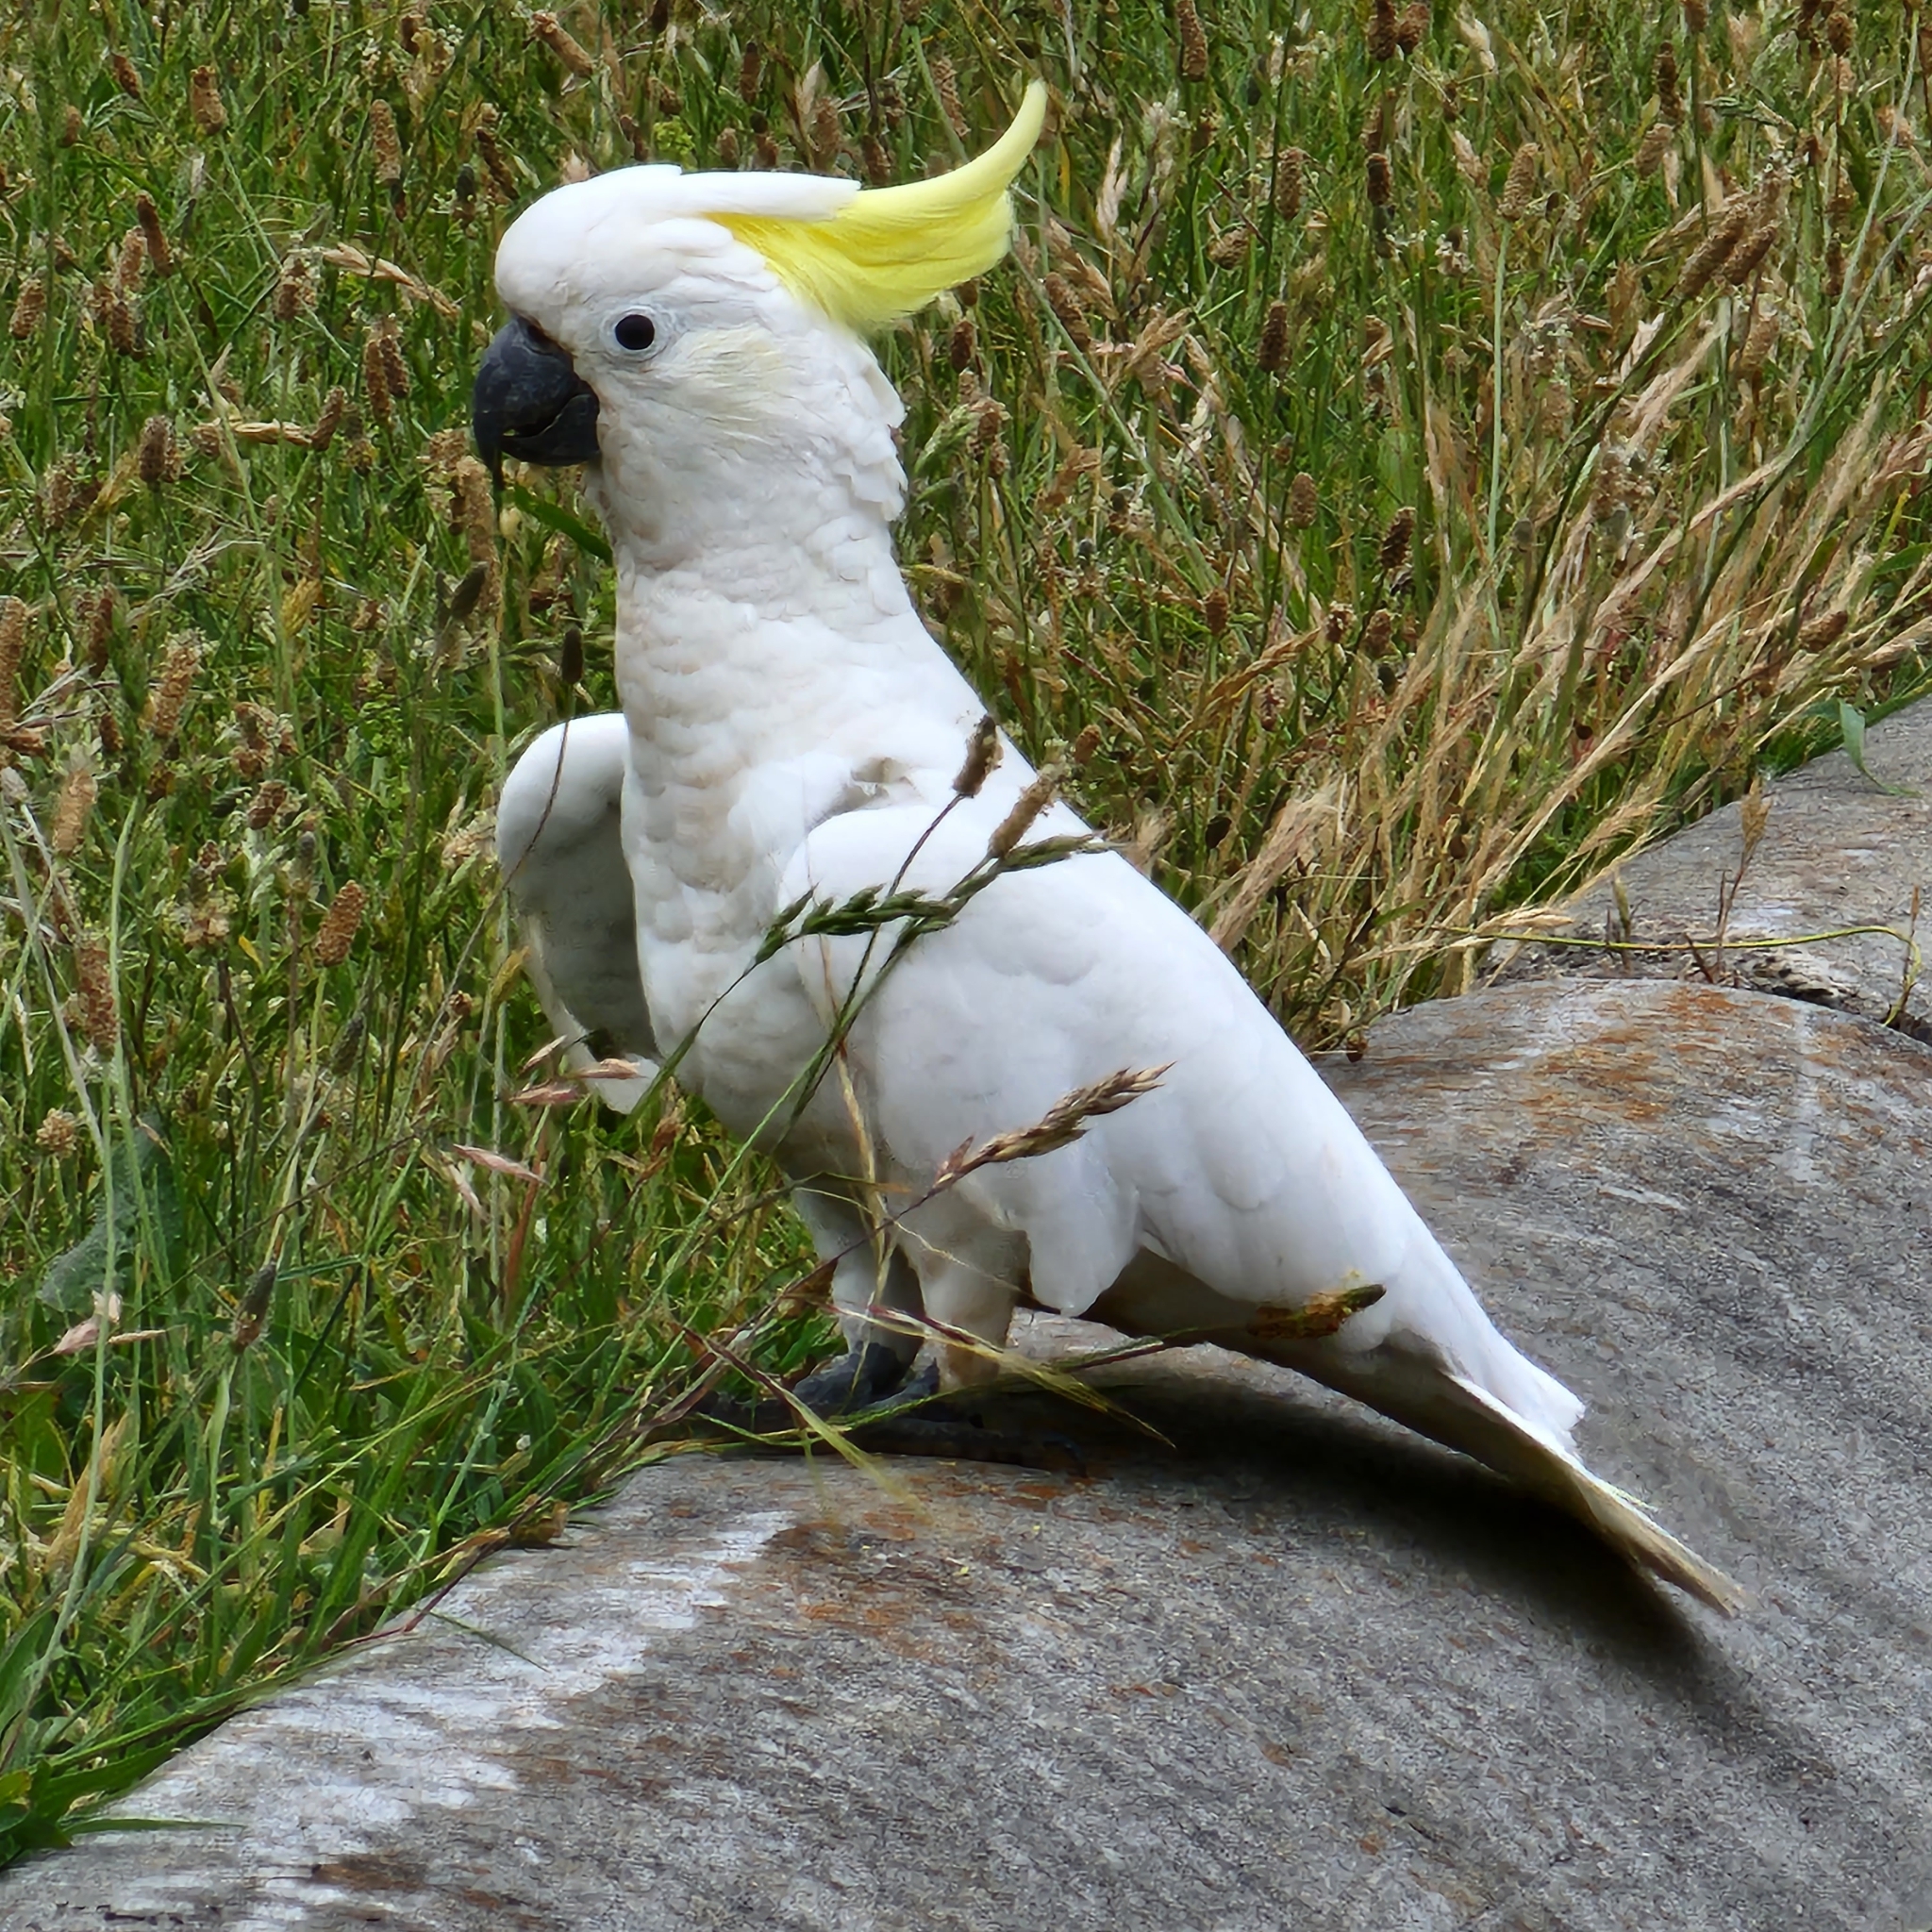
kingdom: Animalia
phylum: Chordata
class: Aves
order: Psittaciformes
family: Psittacidae
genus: Cacatua
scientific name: Cacatua galerita
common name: Sulphur-crested cockatoo
